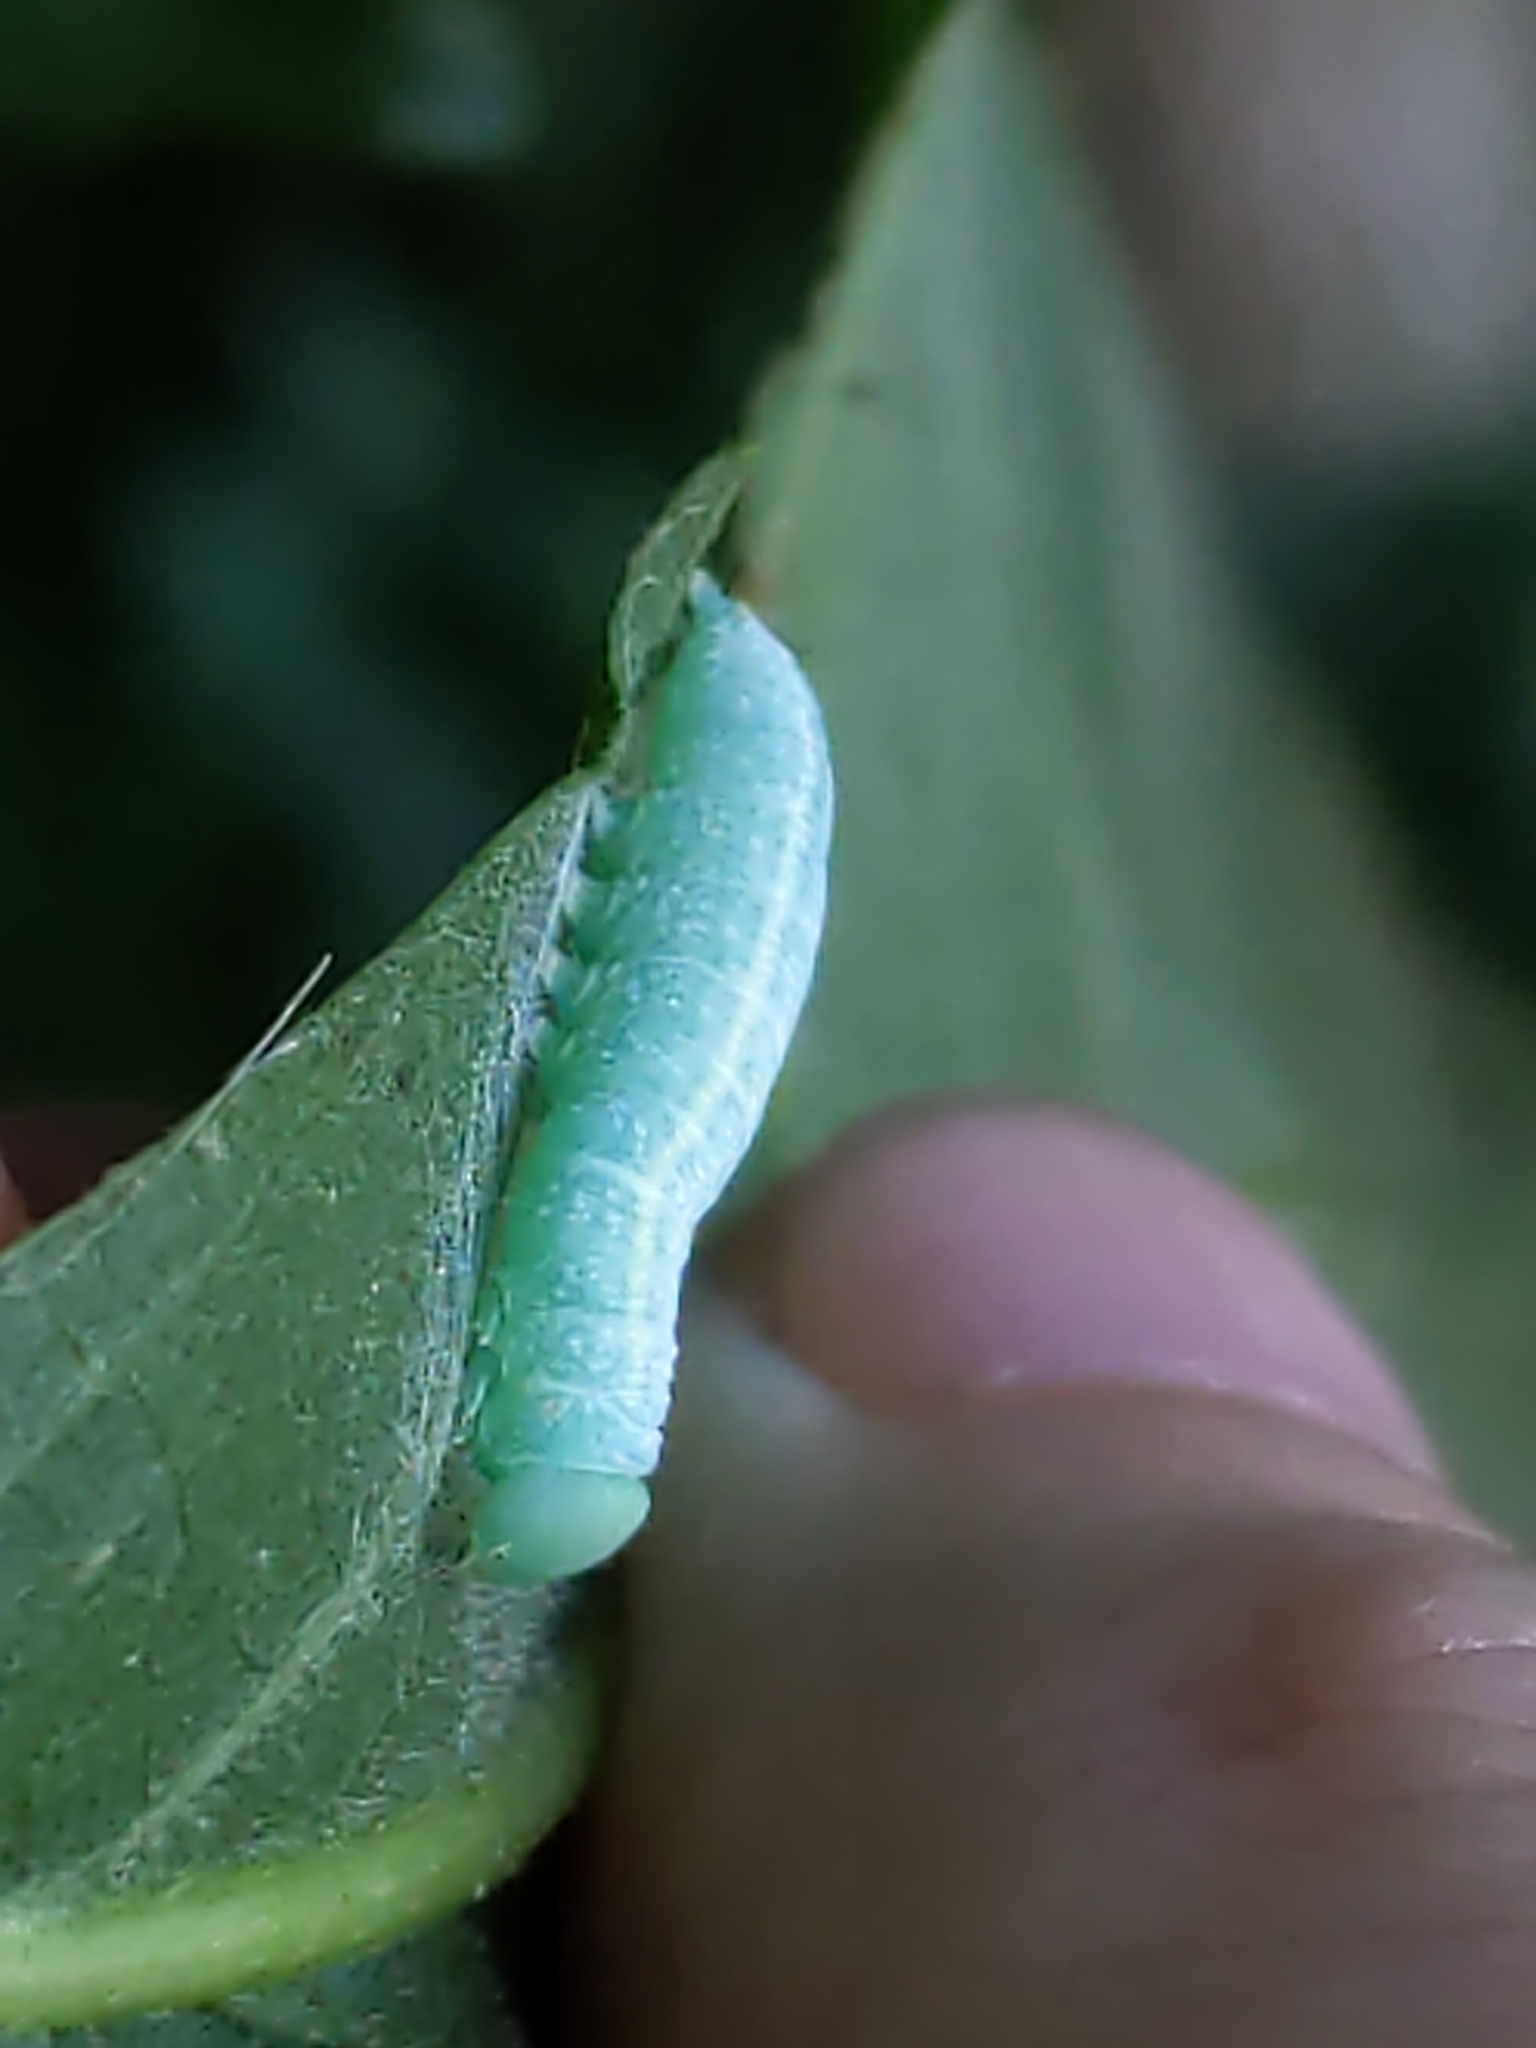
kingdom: Animalia
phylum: Arthropoda
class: Insecta
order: Lepidoptera
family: Notodontidae
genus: Nadata
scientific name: Nadata gibbosa
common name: White-dotted prominent
